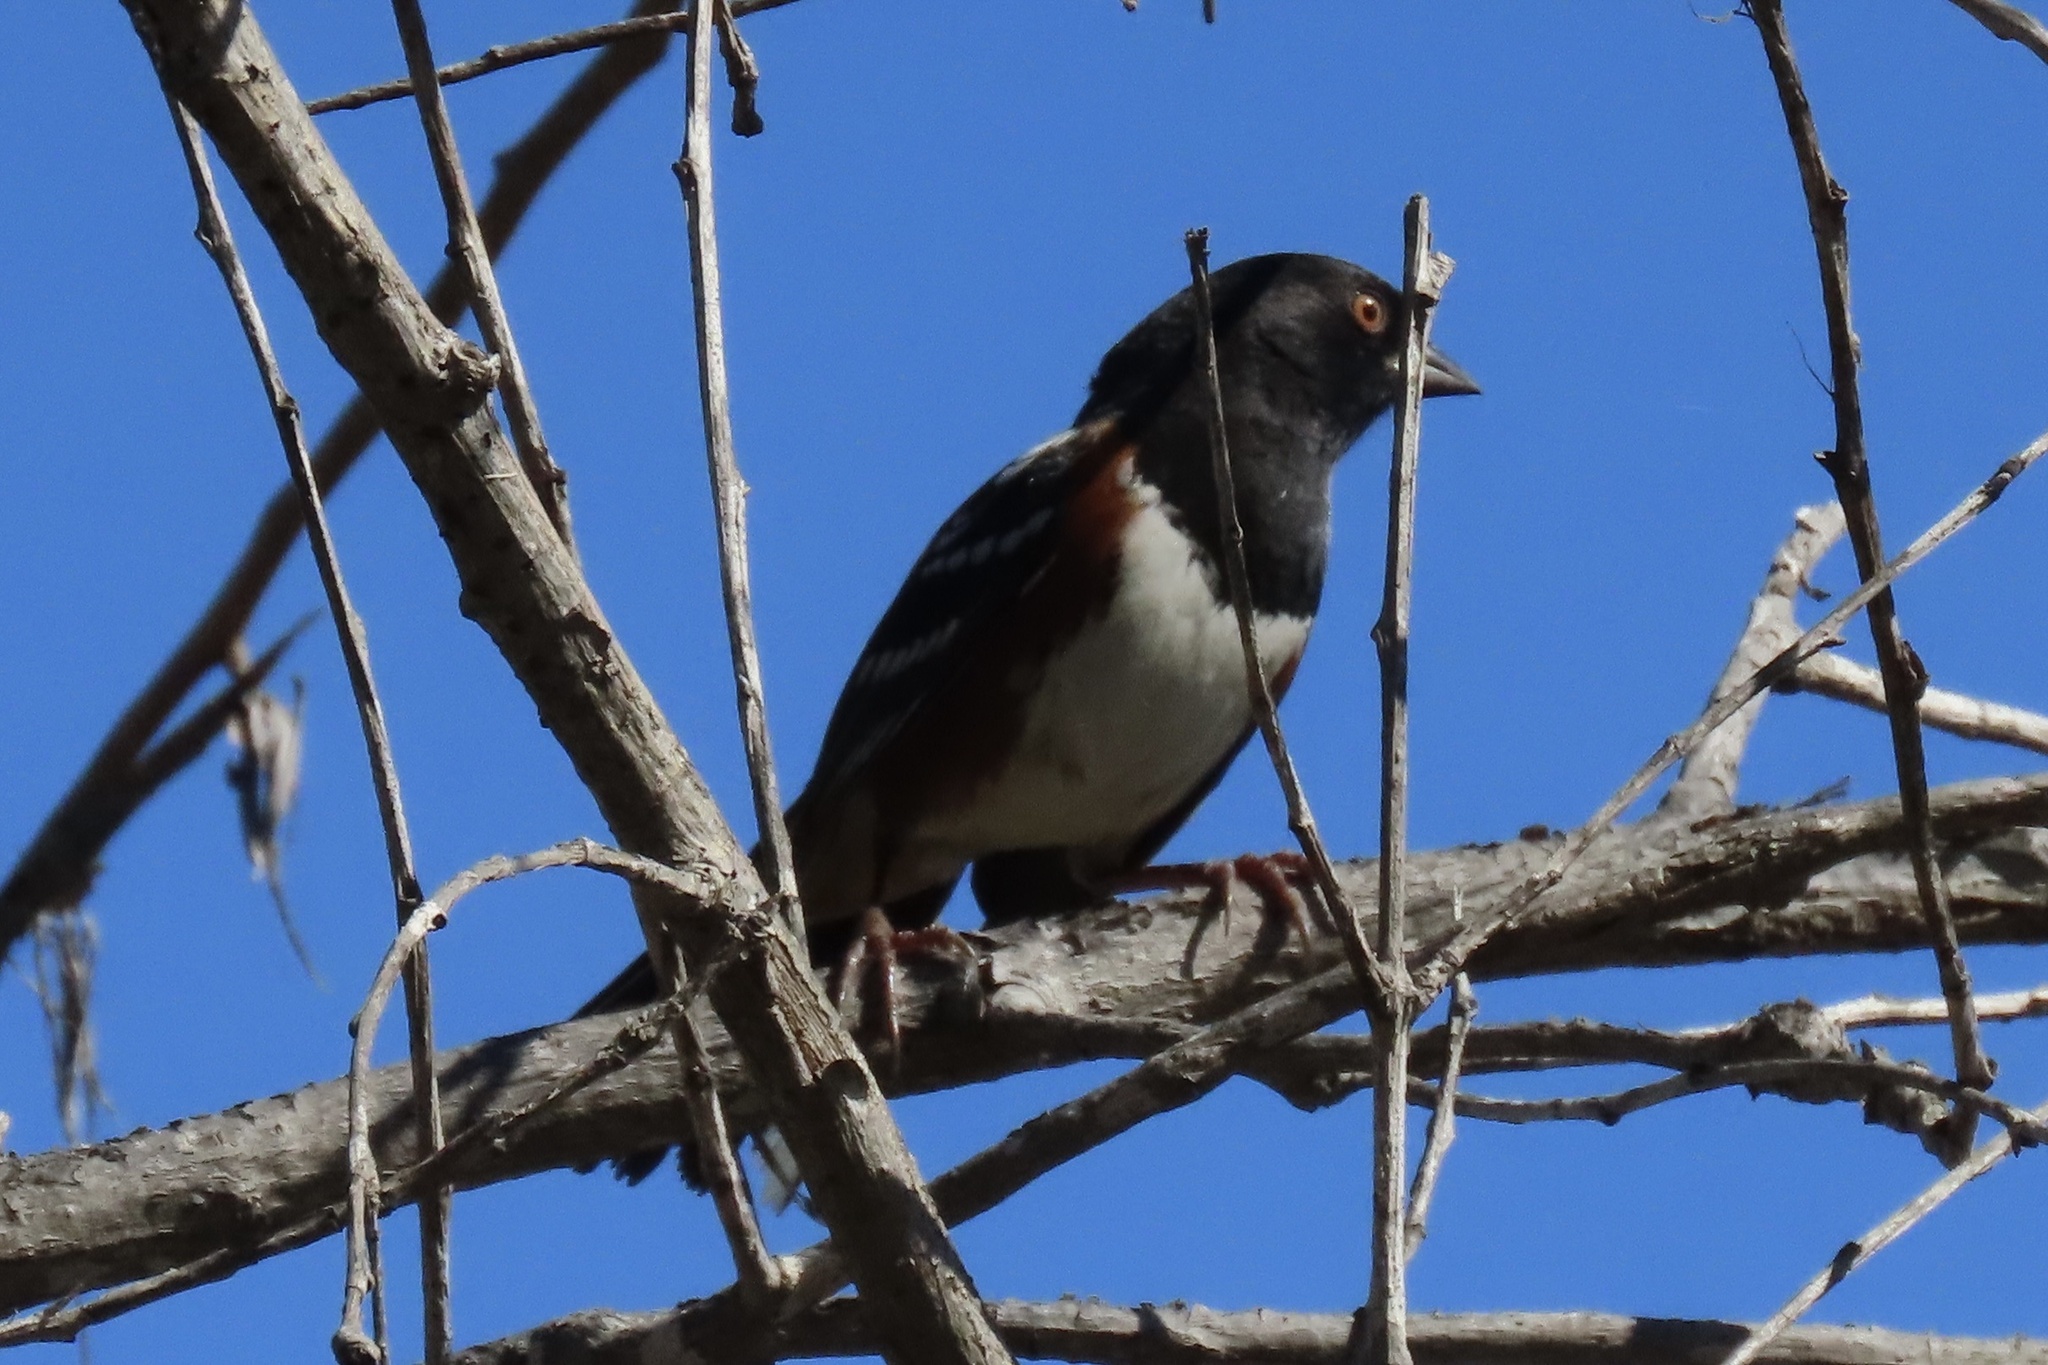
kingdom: Animalia
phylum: Chordata
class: Aves
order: Passeriformes
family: Passerellidae
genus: Pipilo
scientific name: Pipilo maculatus
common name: Spotted towhee
